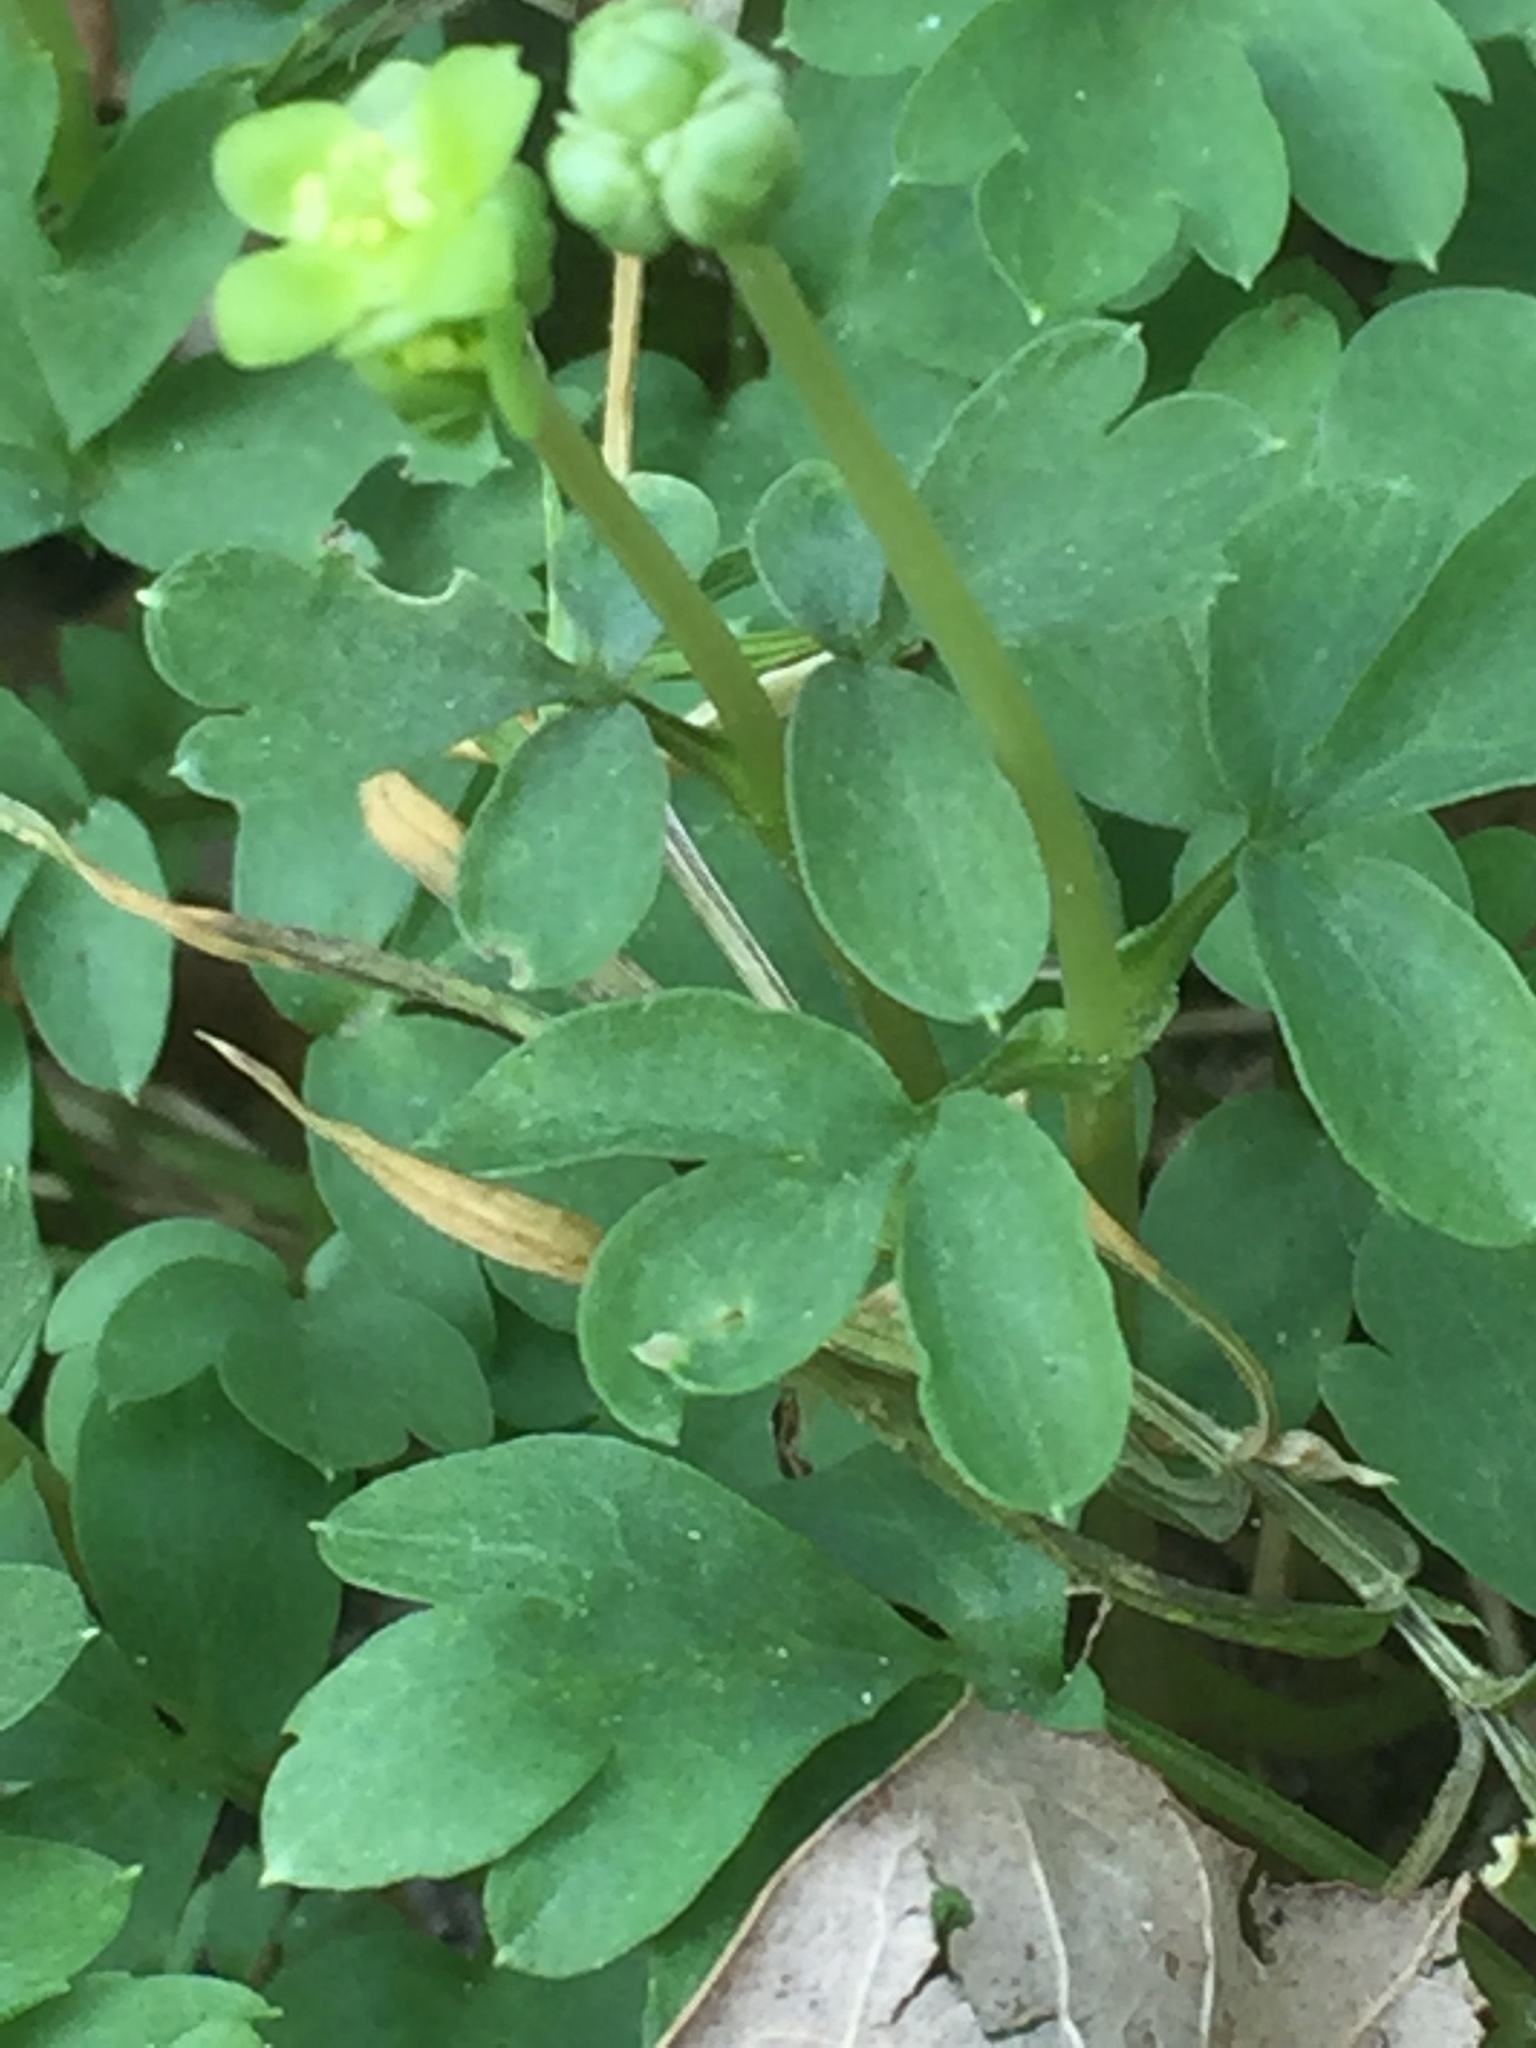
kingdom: Plantae
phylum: Tracheophyta
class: Magnoliopsida
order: Dipsacales
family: Viburnaceae
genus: Adoxa
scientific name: Adoxa moschatellina
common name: Moschatel
